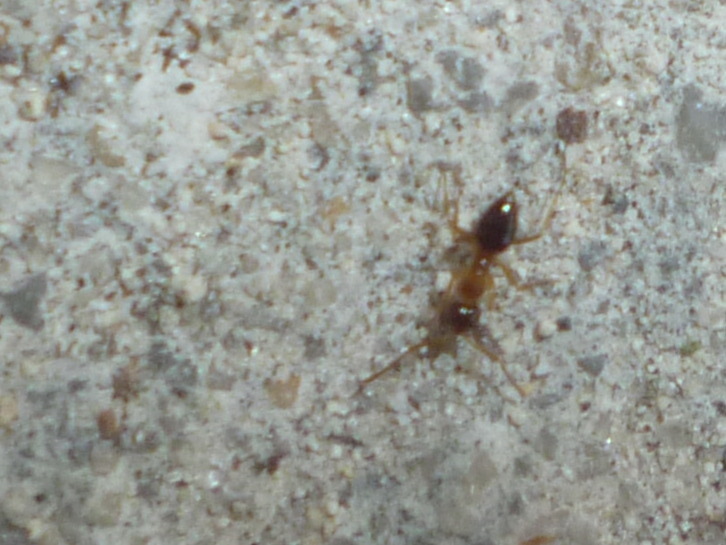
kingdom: Animalia
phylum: Arthropoda
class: Insecta
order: Hymenoptera
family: Formicidae
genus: Prenolepis
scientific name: Prenolepis imparis
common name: Small honey ant
